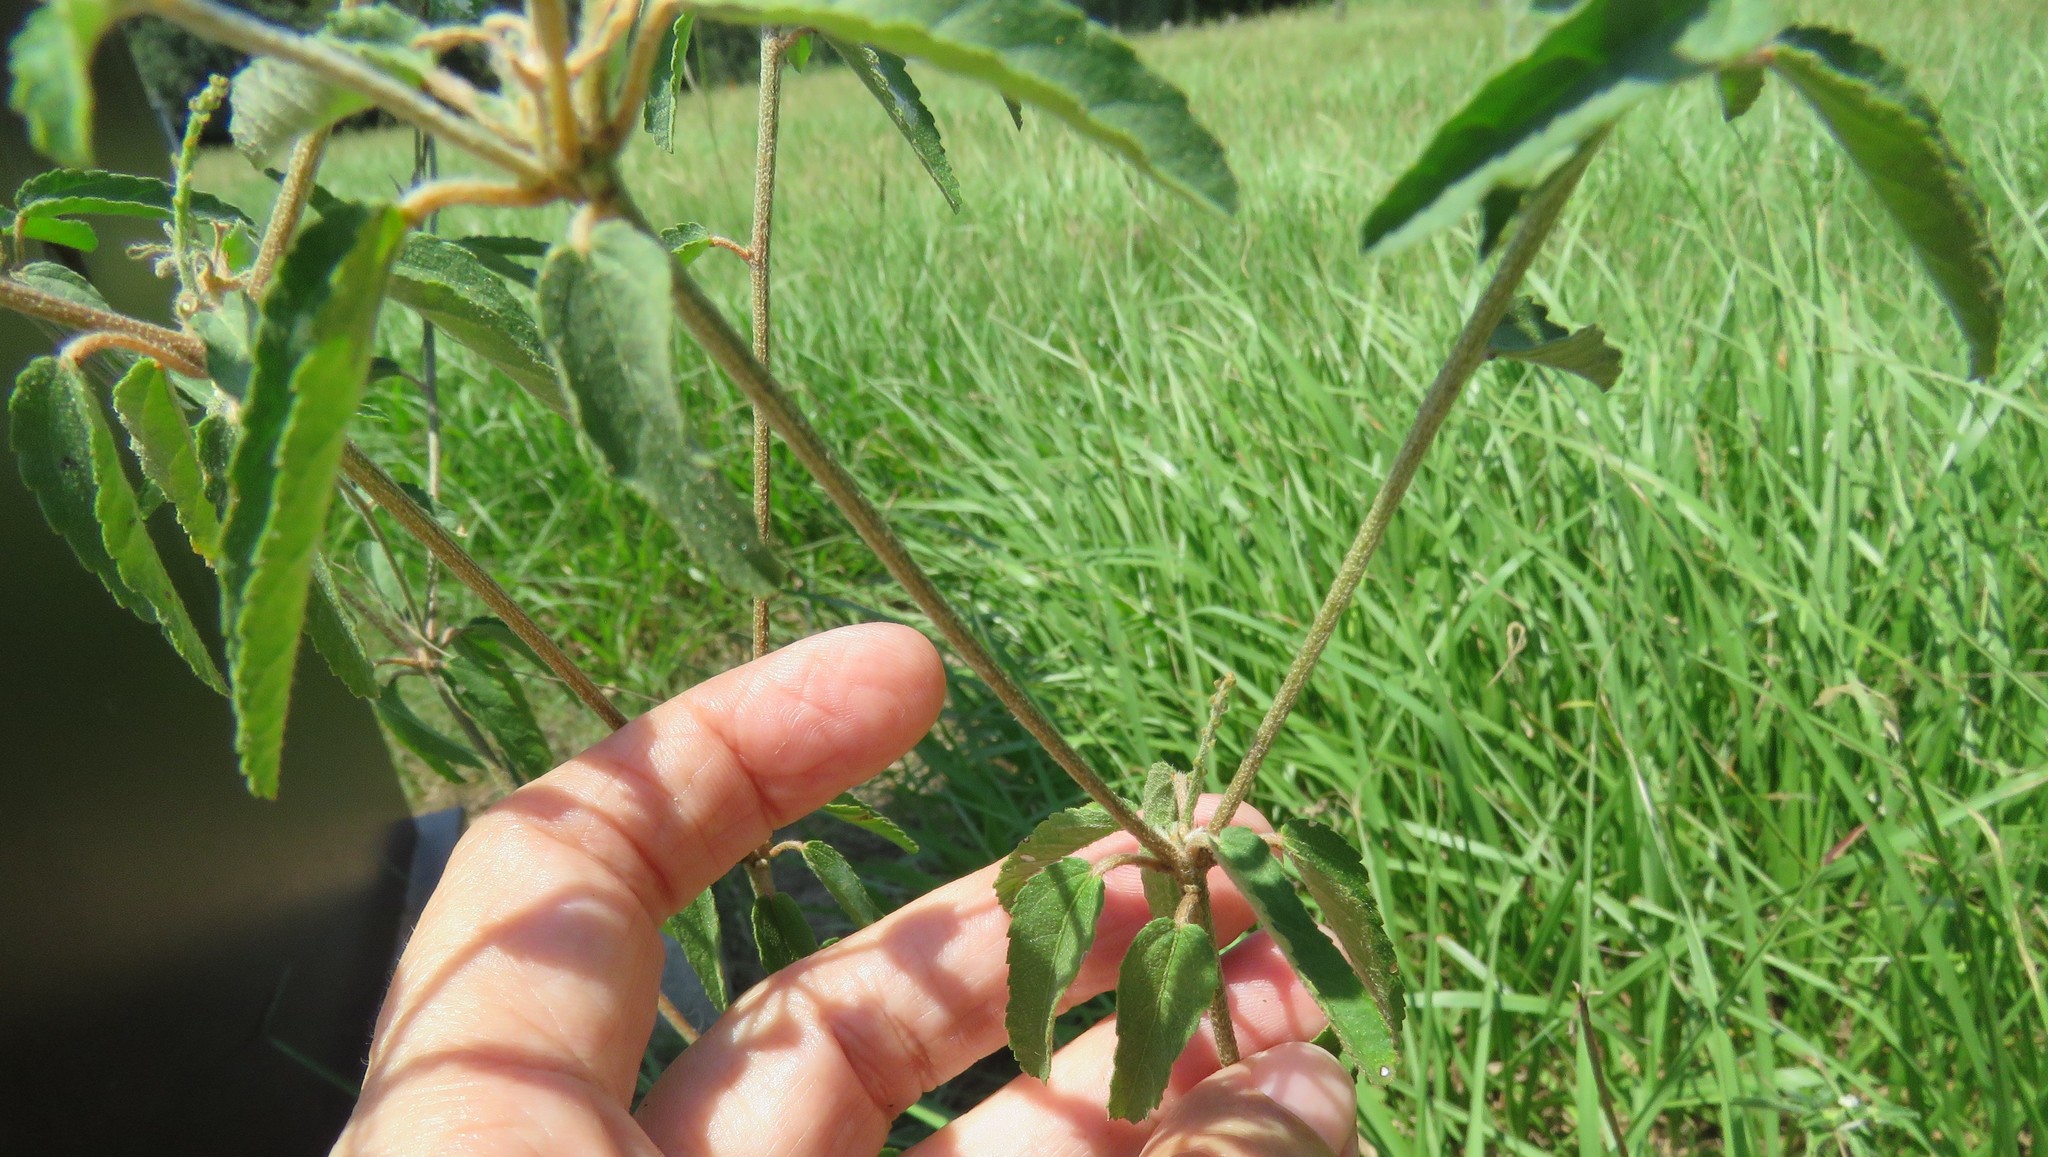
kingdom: Plantae
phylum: Tracheophyta
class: Magnoliopsida
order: Malpighiales
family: Euphorbiaceae
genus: Croton
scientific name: Croton glandulosus
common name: Tropic croton
